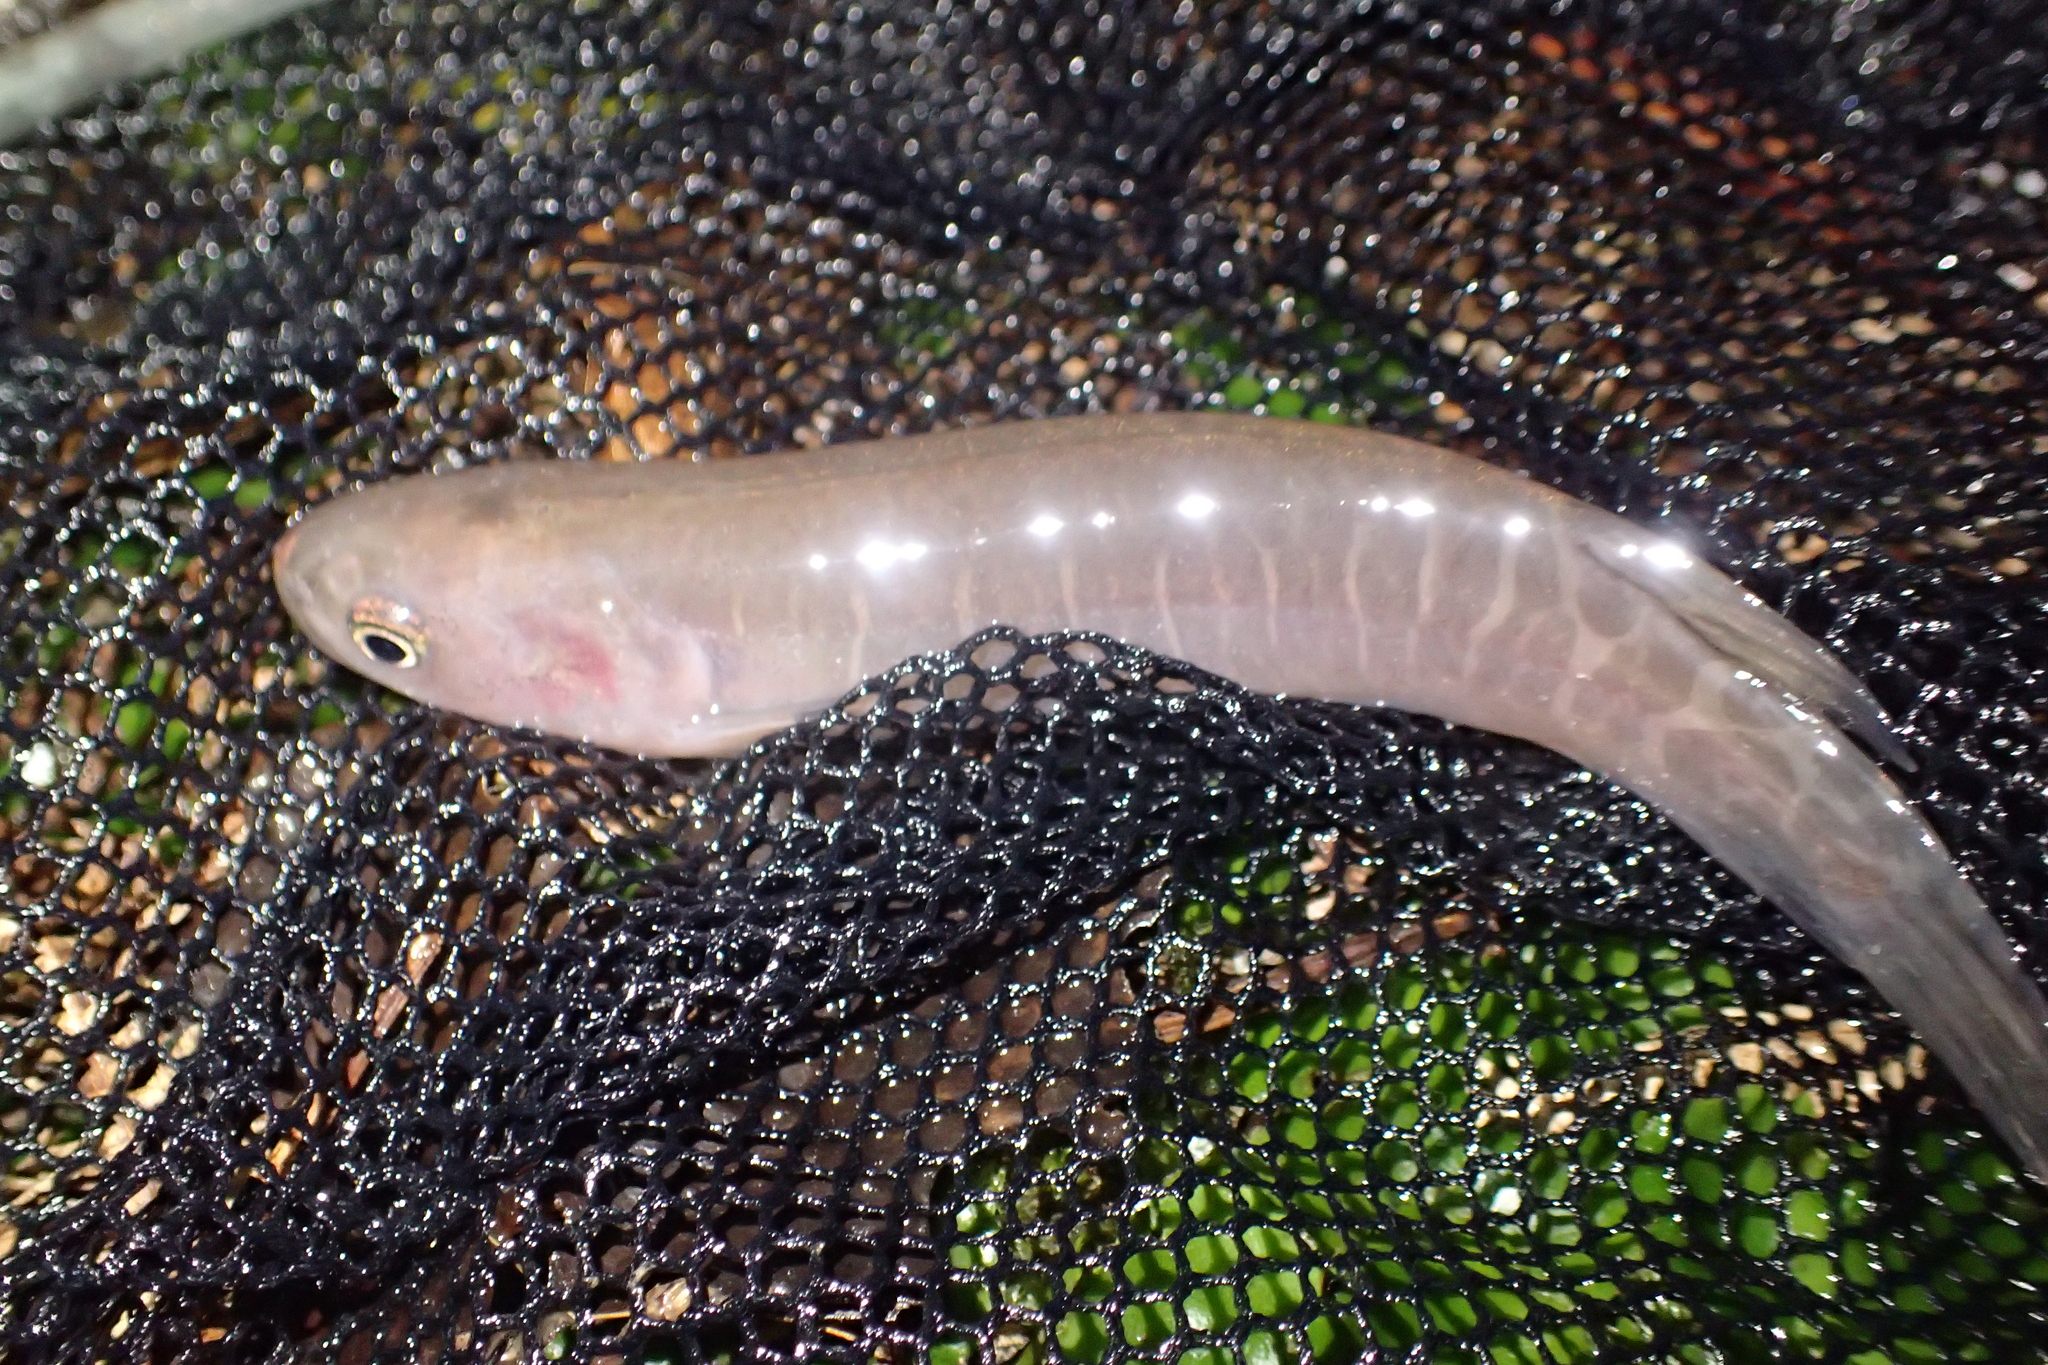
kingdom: Animalia
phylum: Chordata
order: Osmeriformes
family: Galaxiidae
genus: Galaxias
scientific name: Galaxias fasciatus
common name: Banded kokopu
